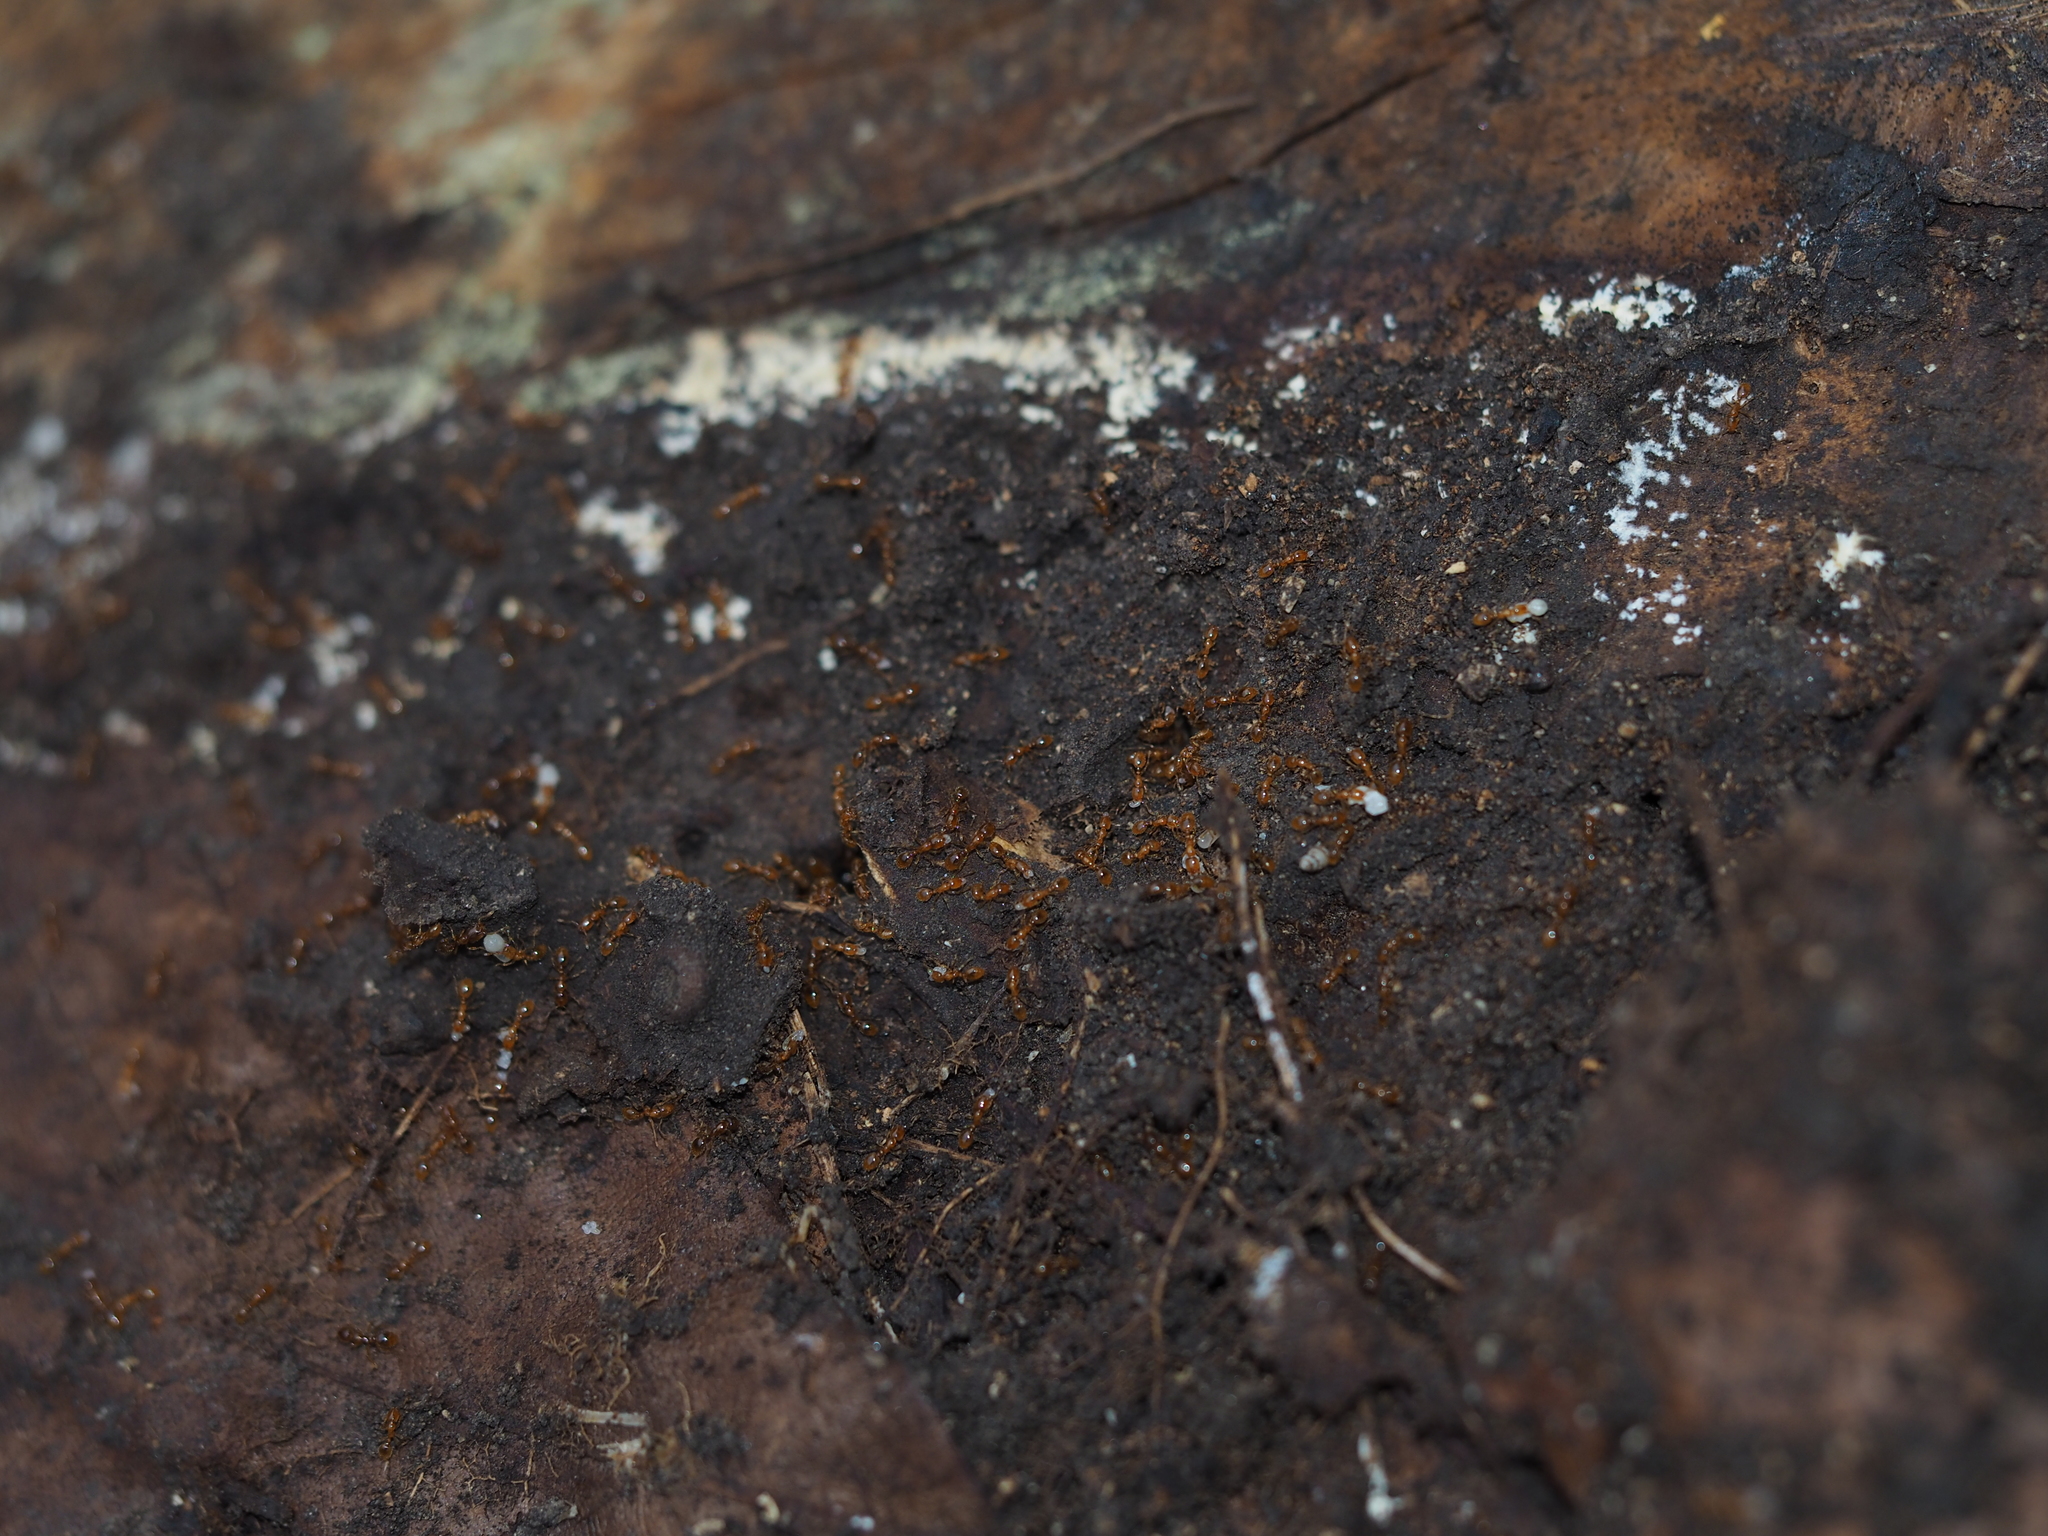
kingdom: Animalia
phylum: Arthropoda
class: Insecta
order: Hymenoptera
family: Formicidae
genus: Solenopsis
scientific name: Solenopsis fugax
